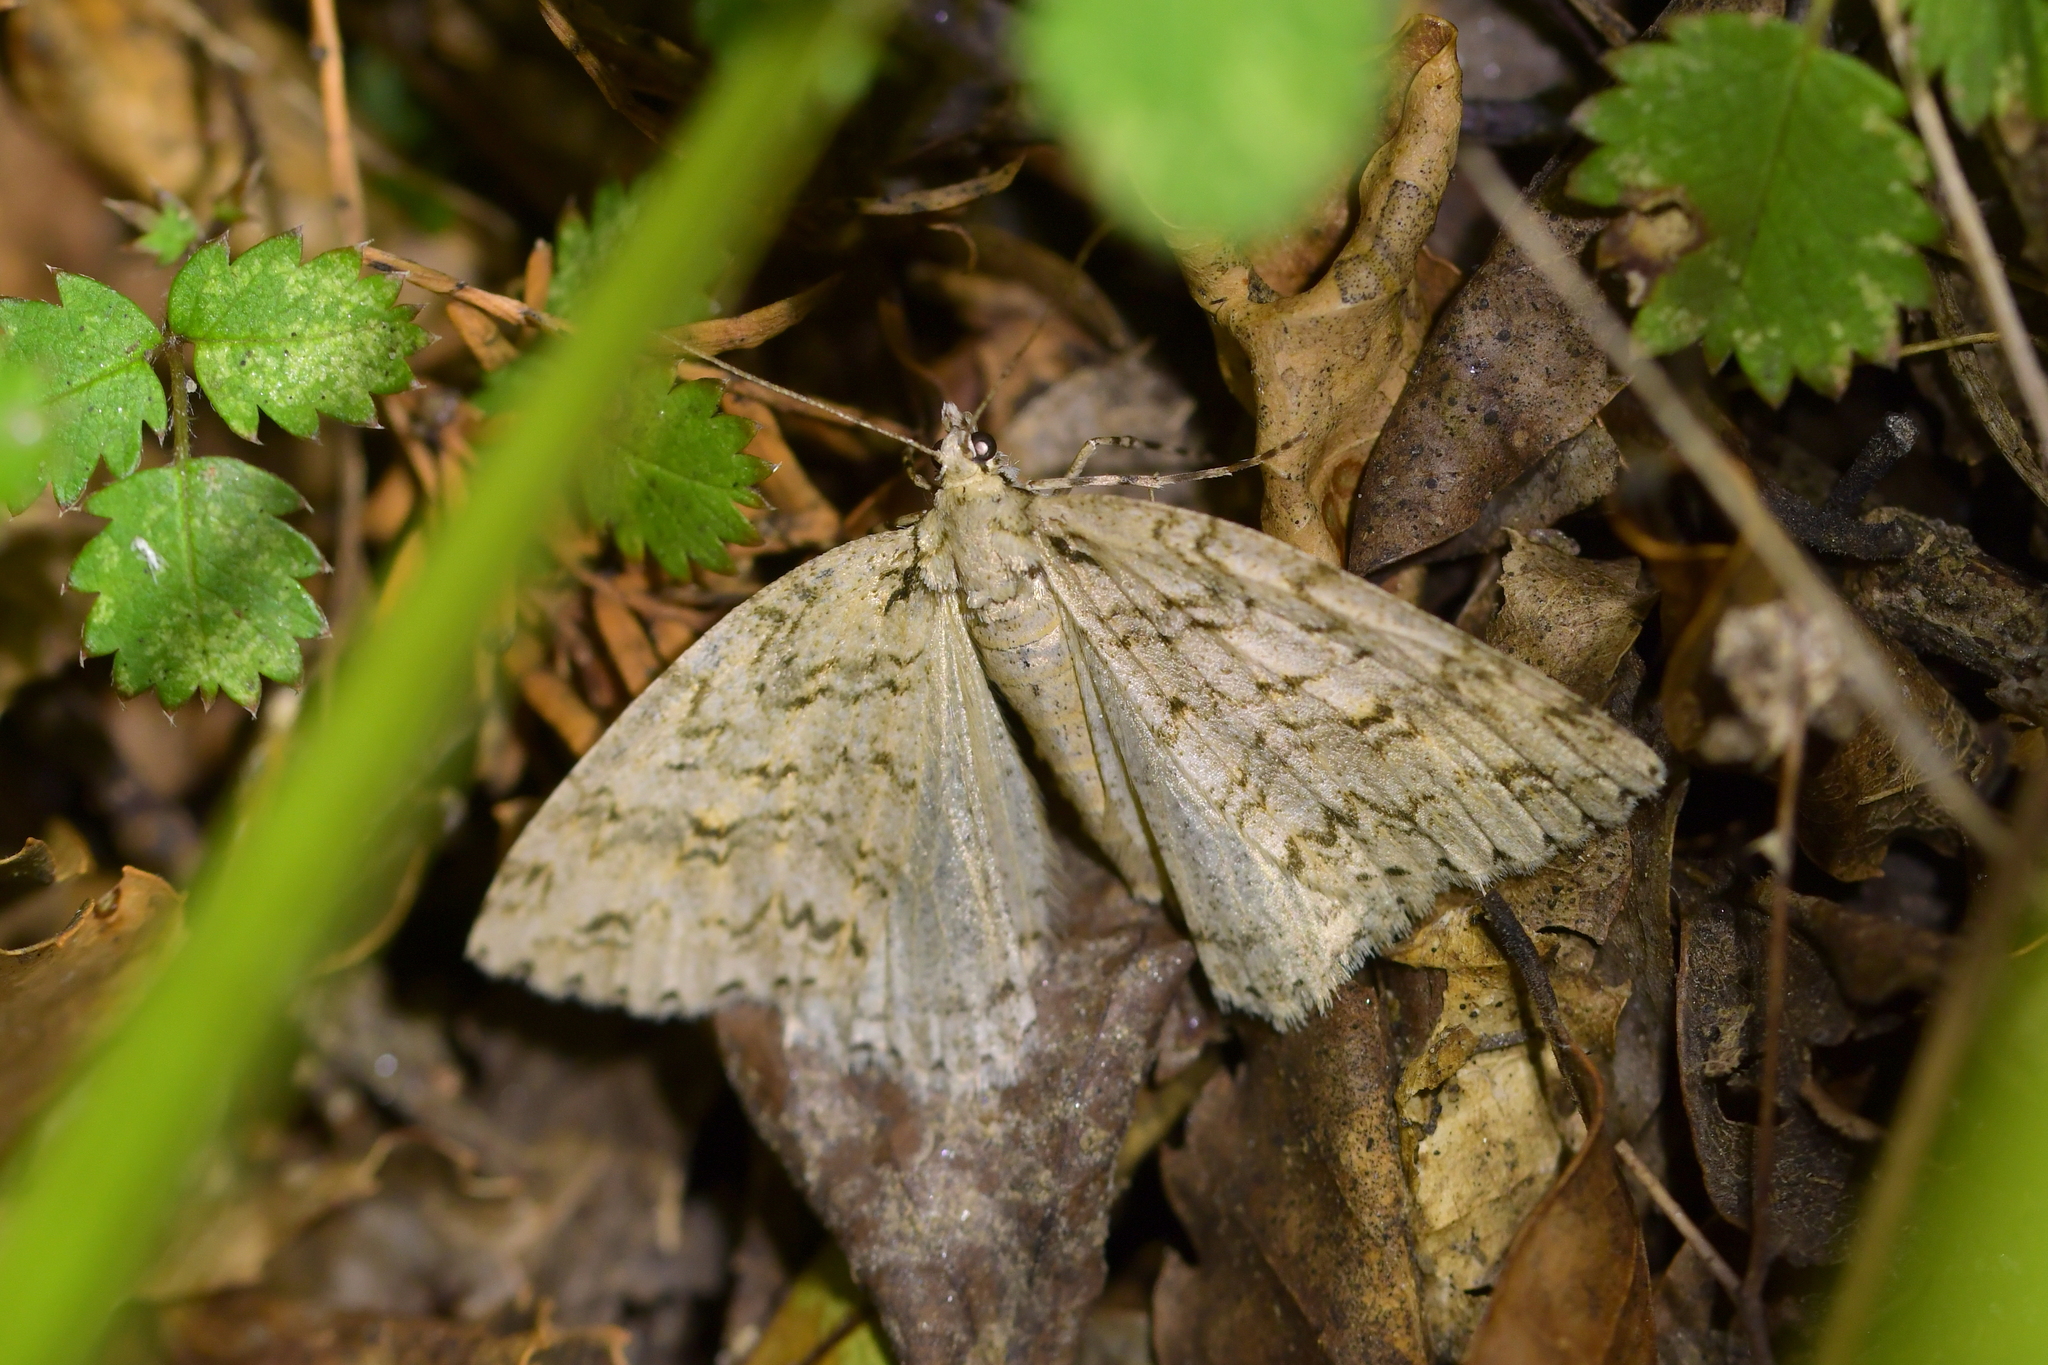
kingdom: Animalia
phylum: Arthropoda
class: Insecta
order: Lepidoptera
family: Geometridae
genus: Pseudocoremia
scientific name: Pseudocoremia rudisata
